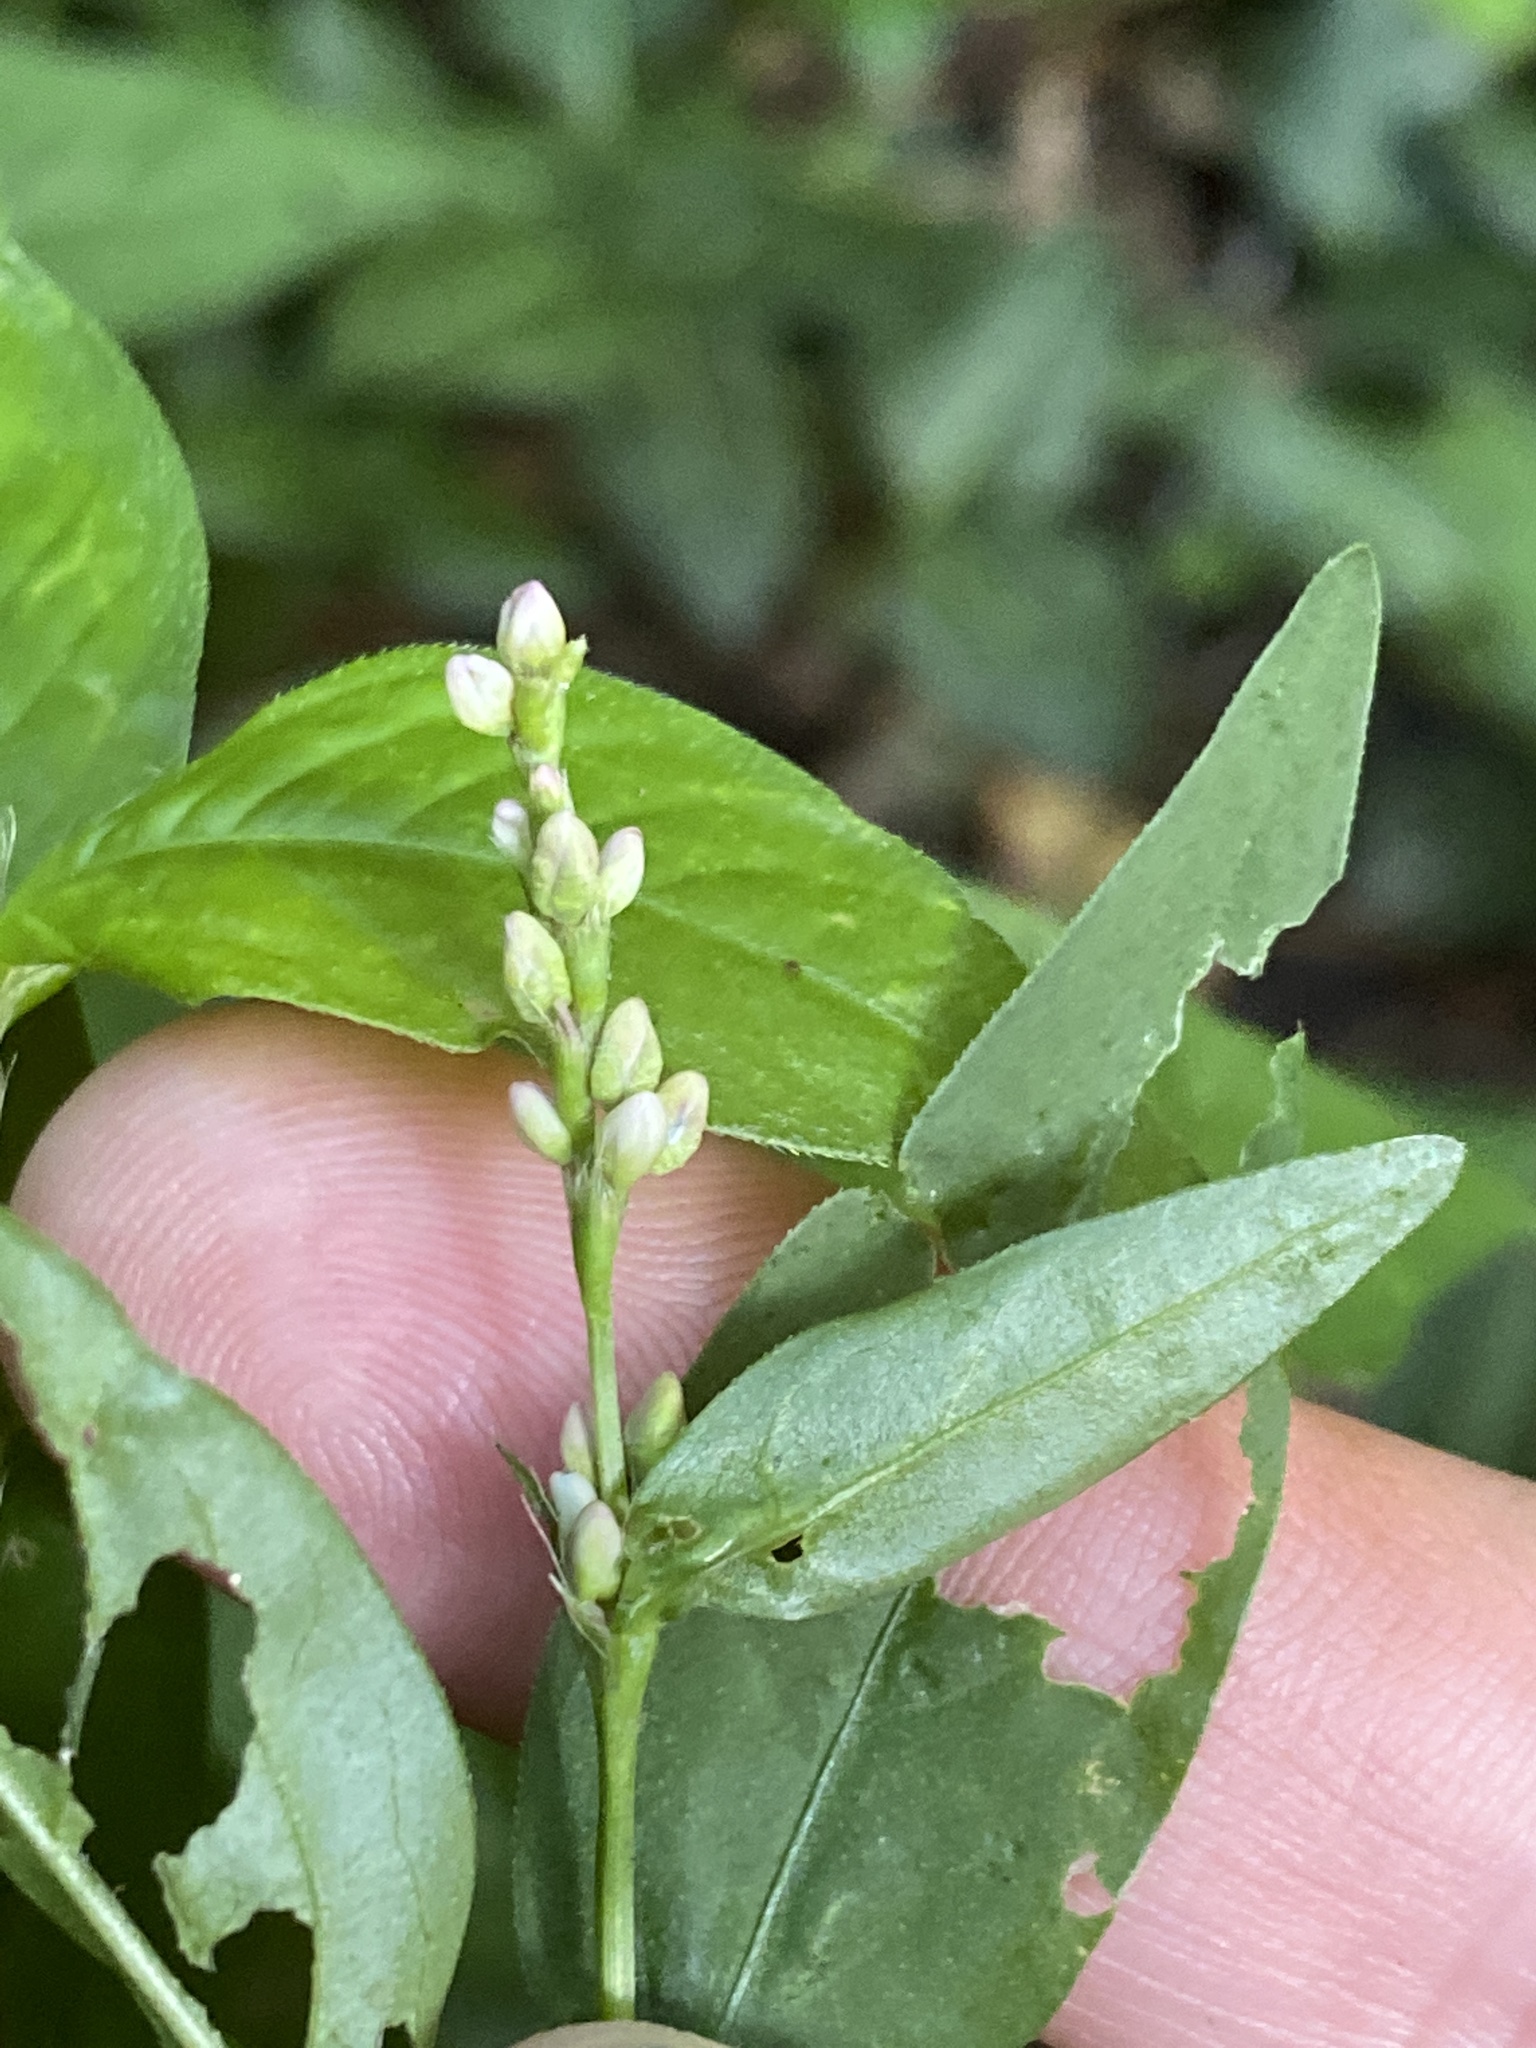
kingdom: Plantae
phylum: Tracheophyta
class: Magnoliopsida
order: Caryophyllales
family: Polygonaceae
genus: Persicaria
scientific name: Persicaria longiseta
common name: Bristly lady's-thumb
